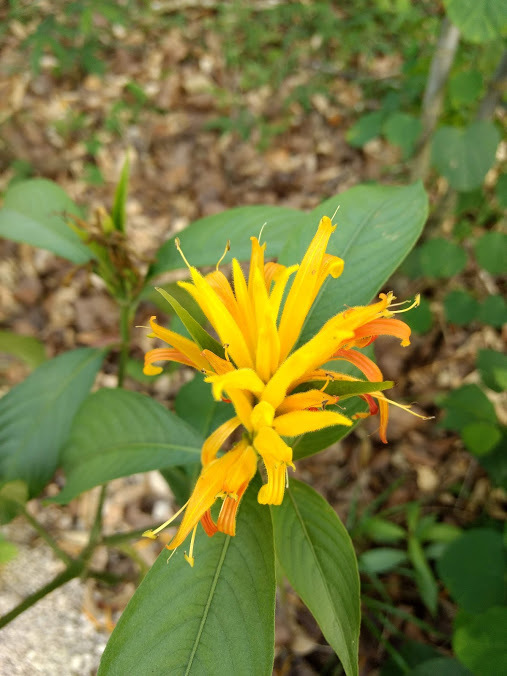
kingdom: Plantae
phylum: Tracheophyta
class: Magnoliopsida
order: Lamiales
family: Acanthaceae
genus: Justicia
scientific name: Justicia aurea
